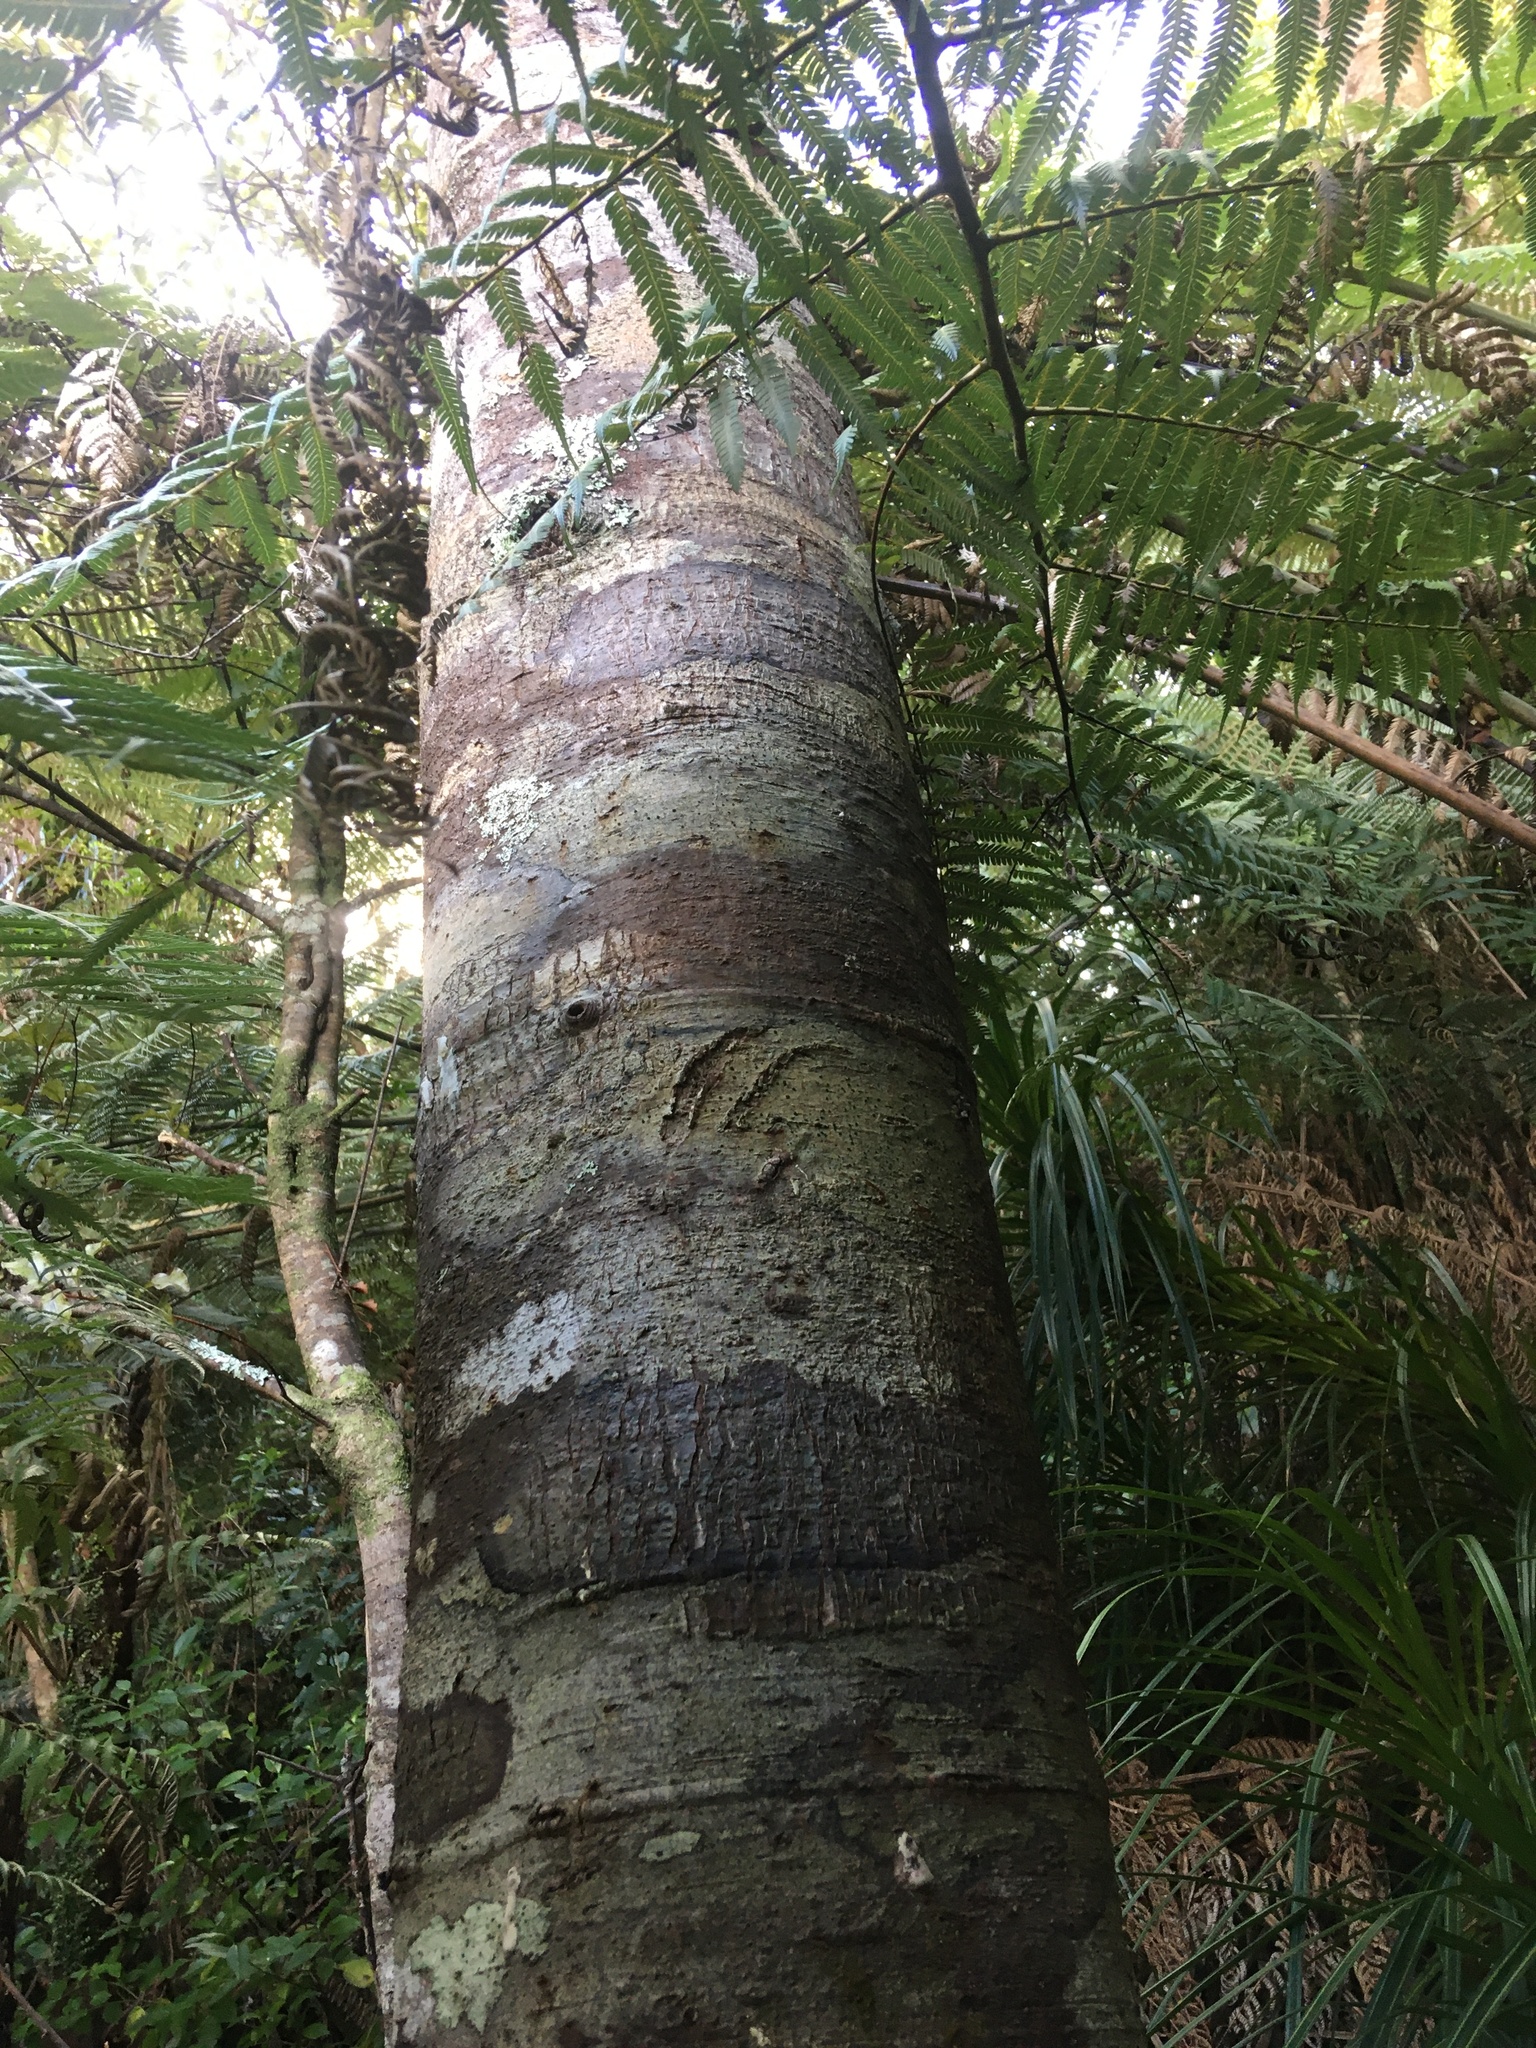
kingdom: Plantae
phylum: Tracheophyta
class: Pinopsida
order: Pinales
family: Phyllocladaceae
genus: Phyllocladus
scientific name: Phyllocladus trichomanoides
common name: Celery pine
